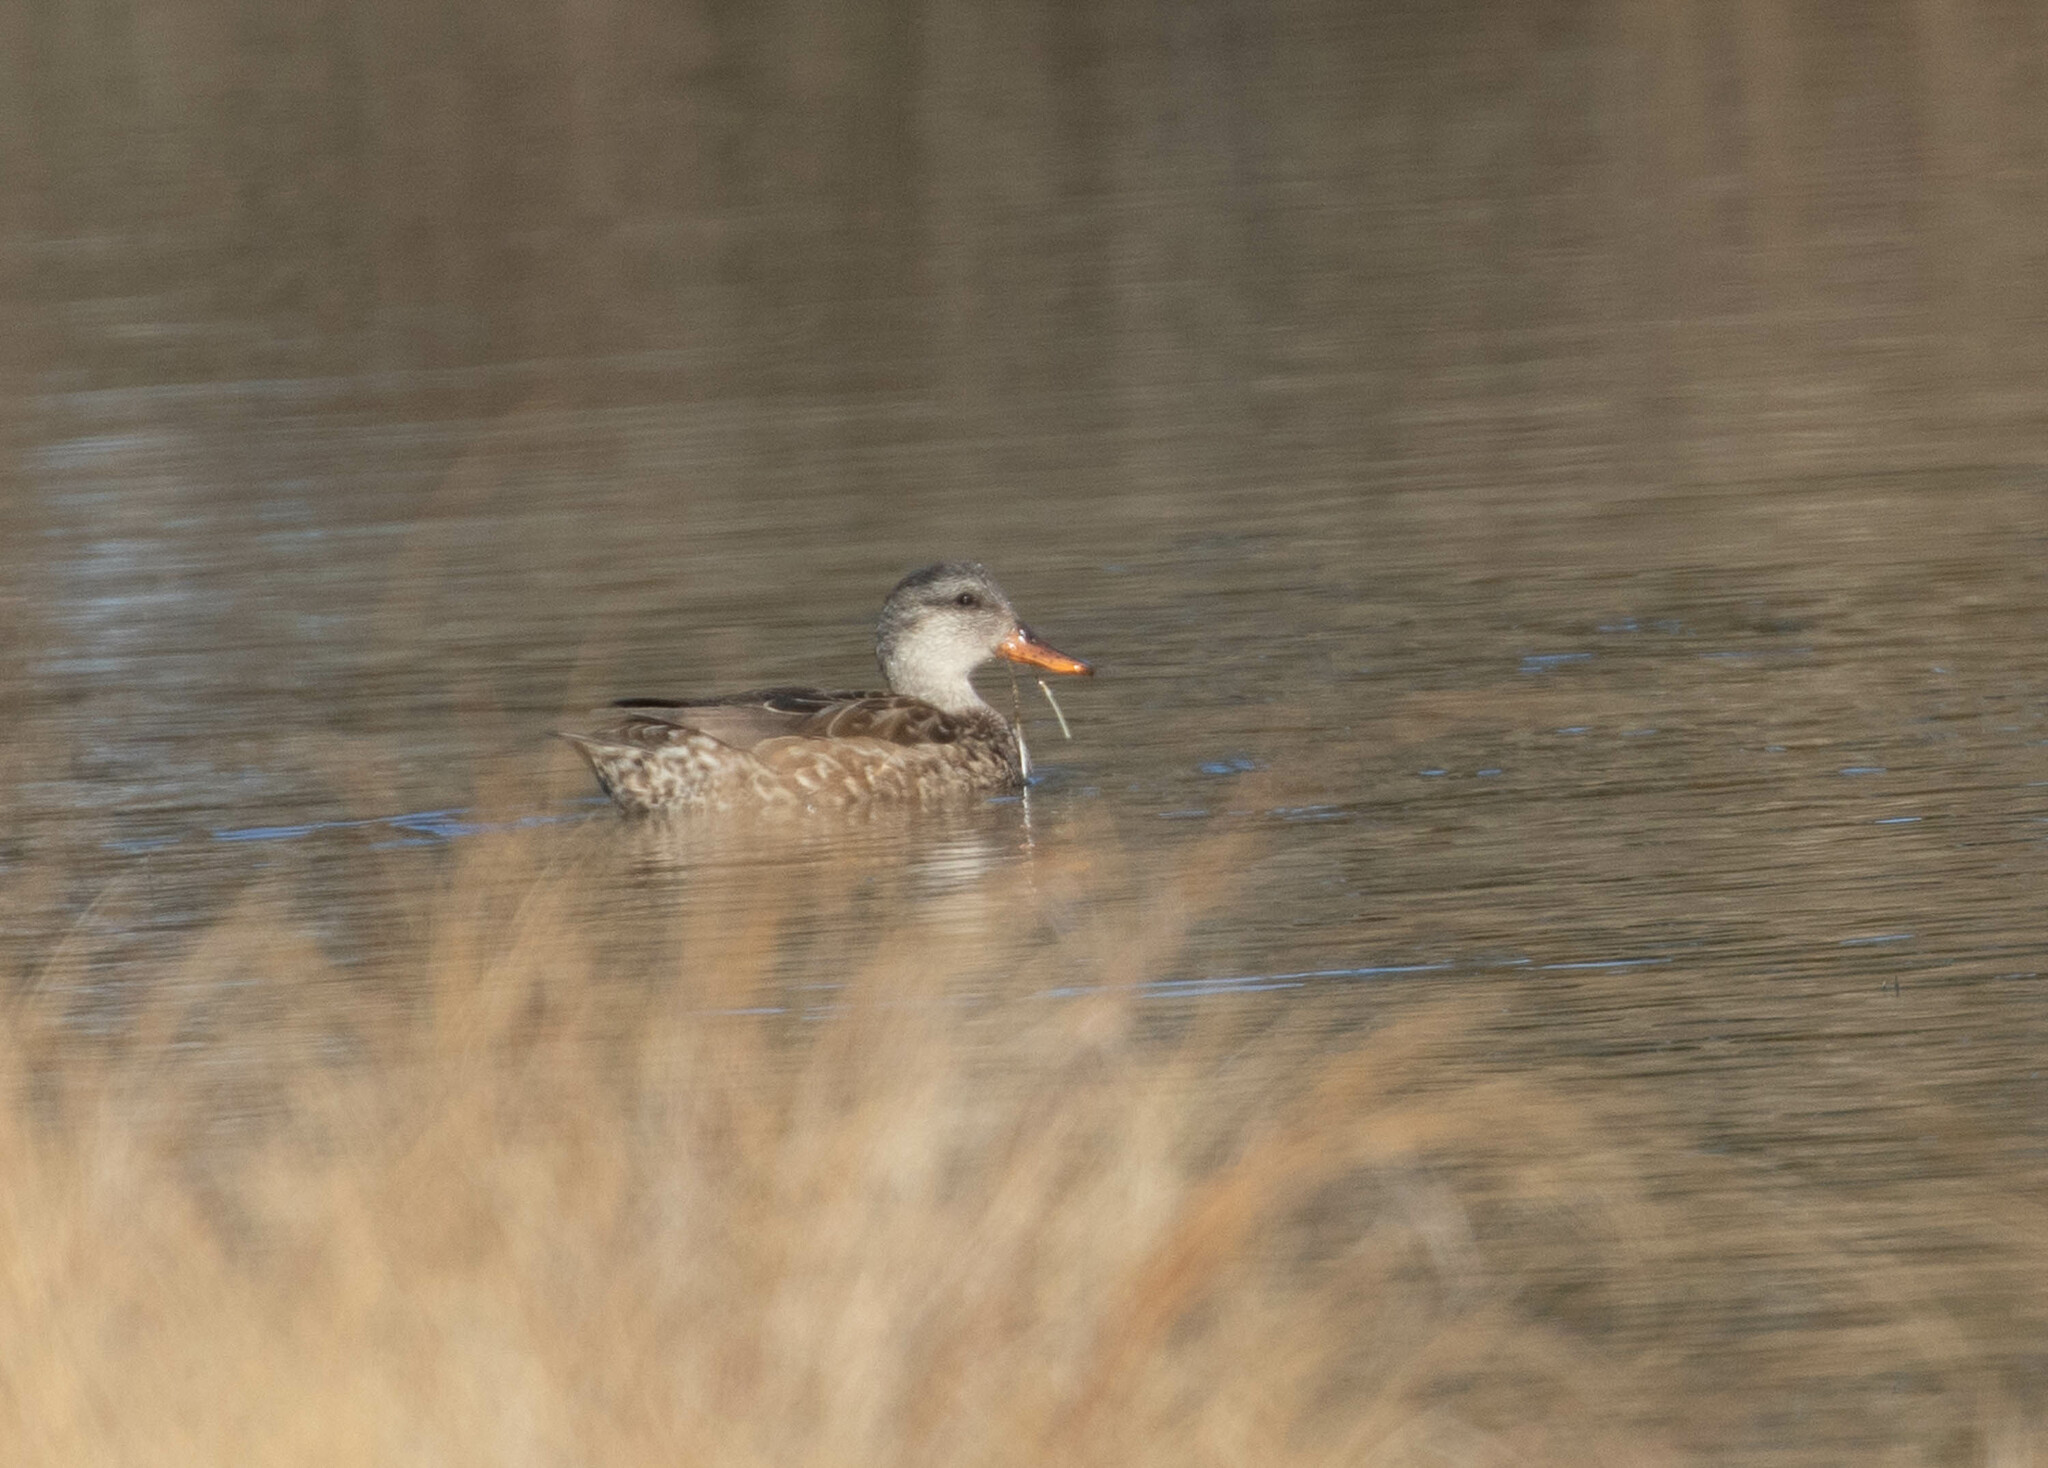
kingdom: Animalia
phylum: Chordata
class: Aves
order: Anseriformes
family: Anatidae
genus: Mareca
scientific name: Mareca strepera
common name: Gadwall
